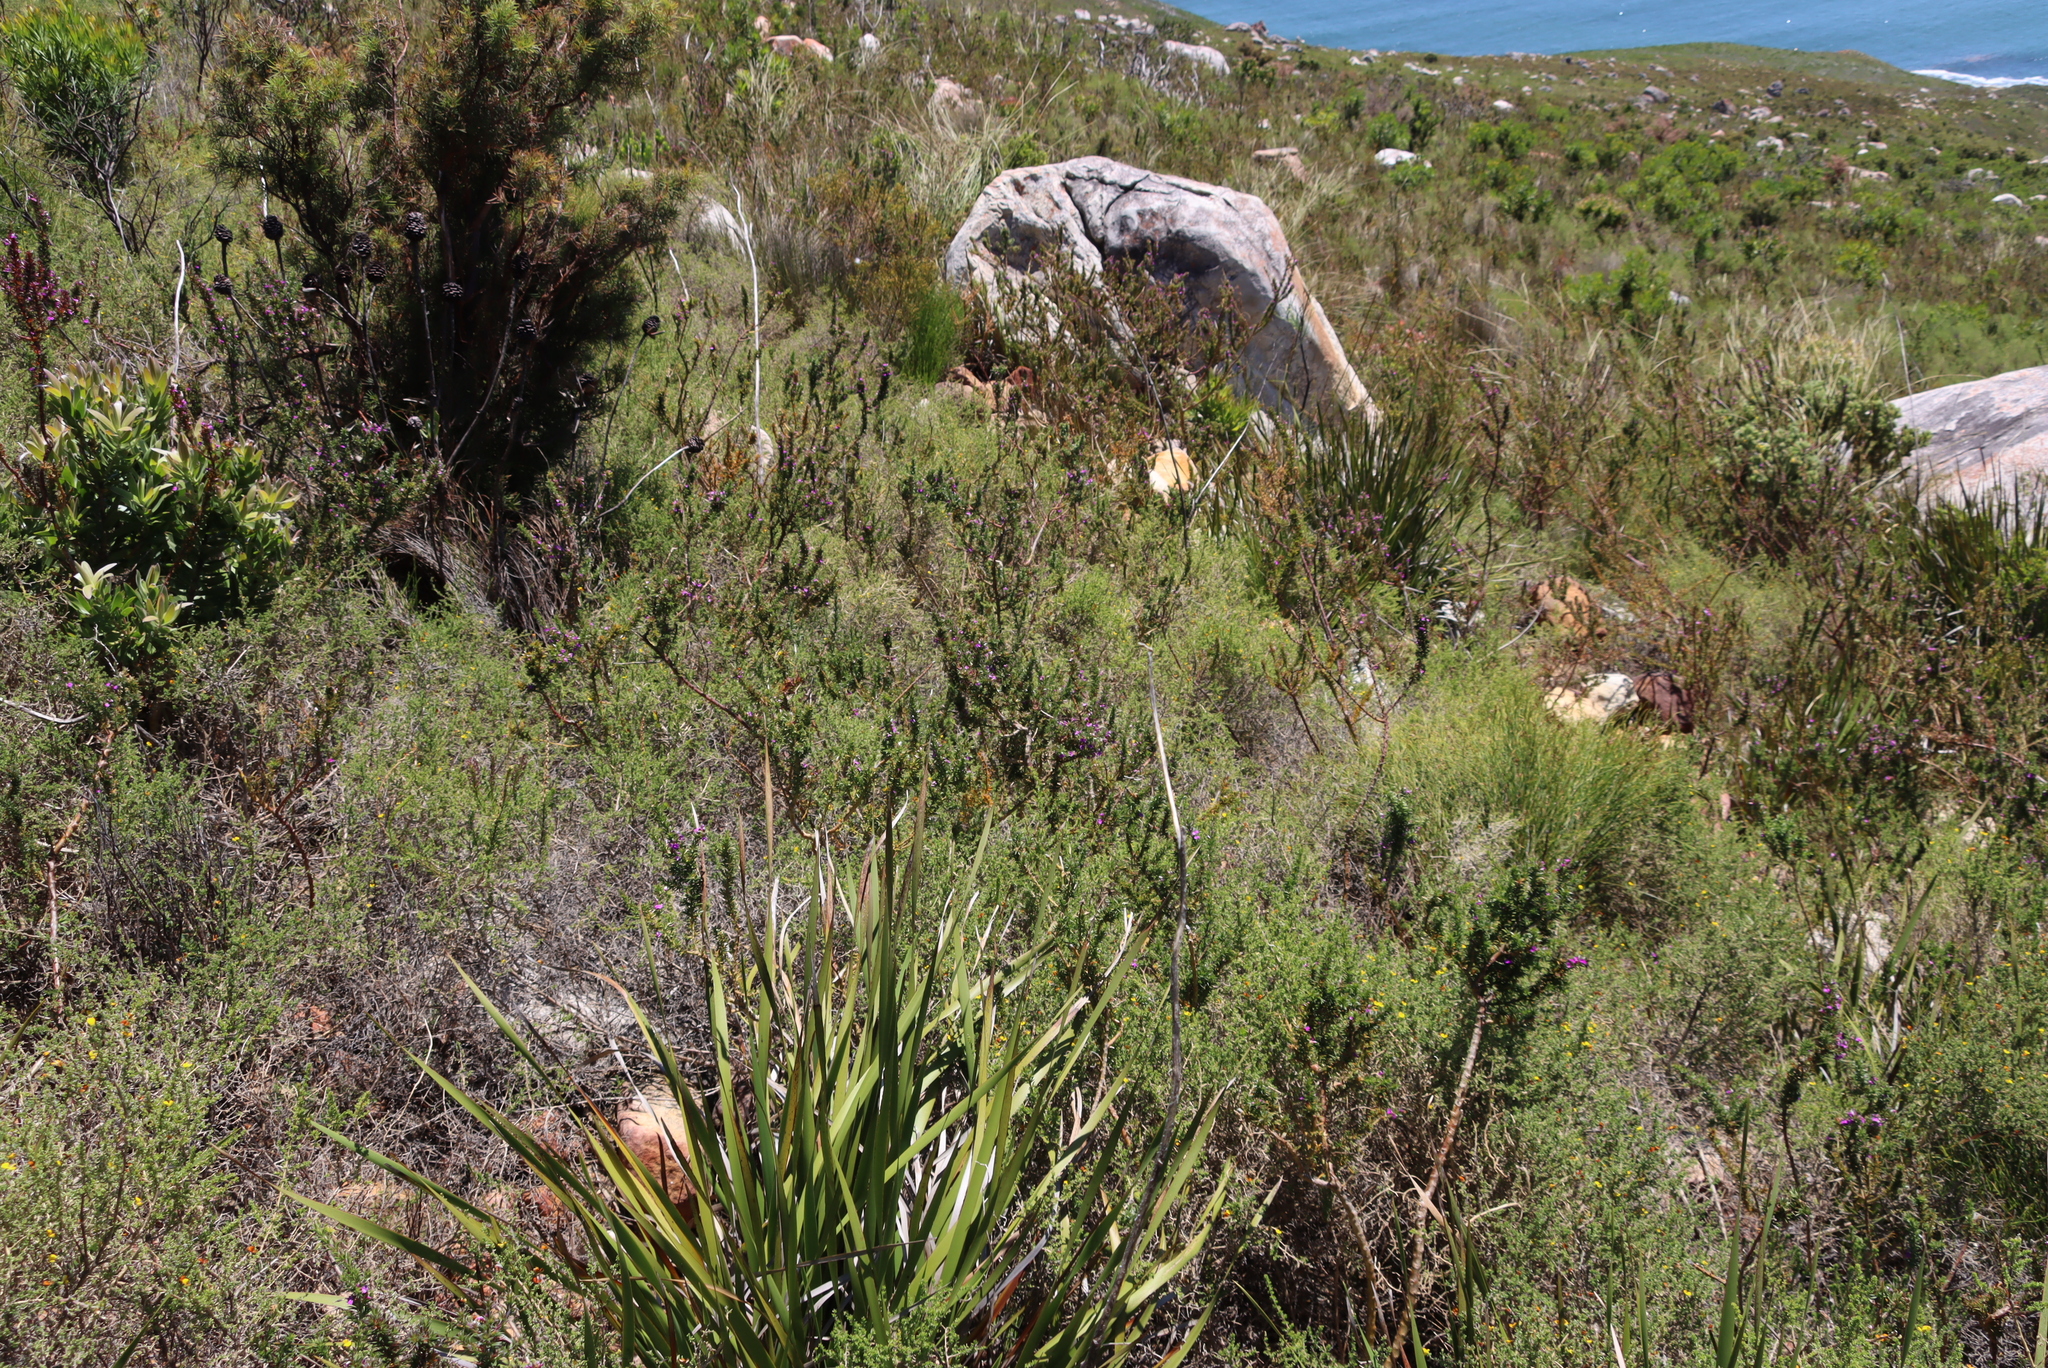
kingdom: Plantae
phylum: Tracheophyta
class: Magnoliopsida
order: Fabales
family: Polygalaceae
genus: Muraltia
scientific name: Muraltia heisteria
